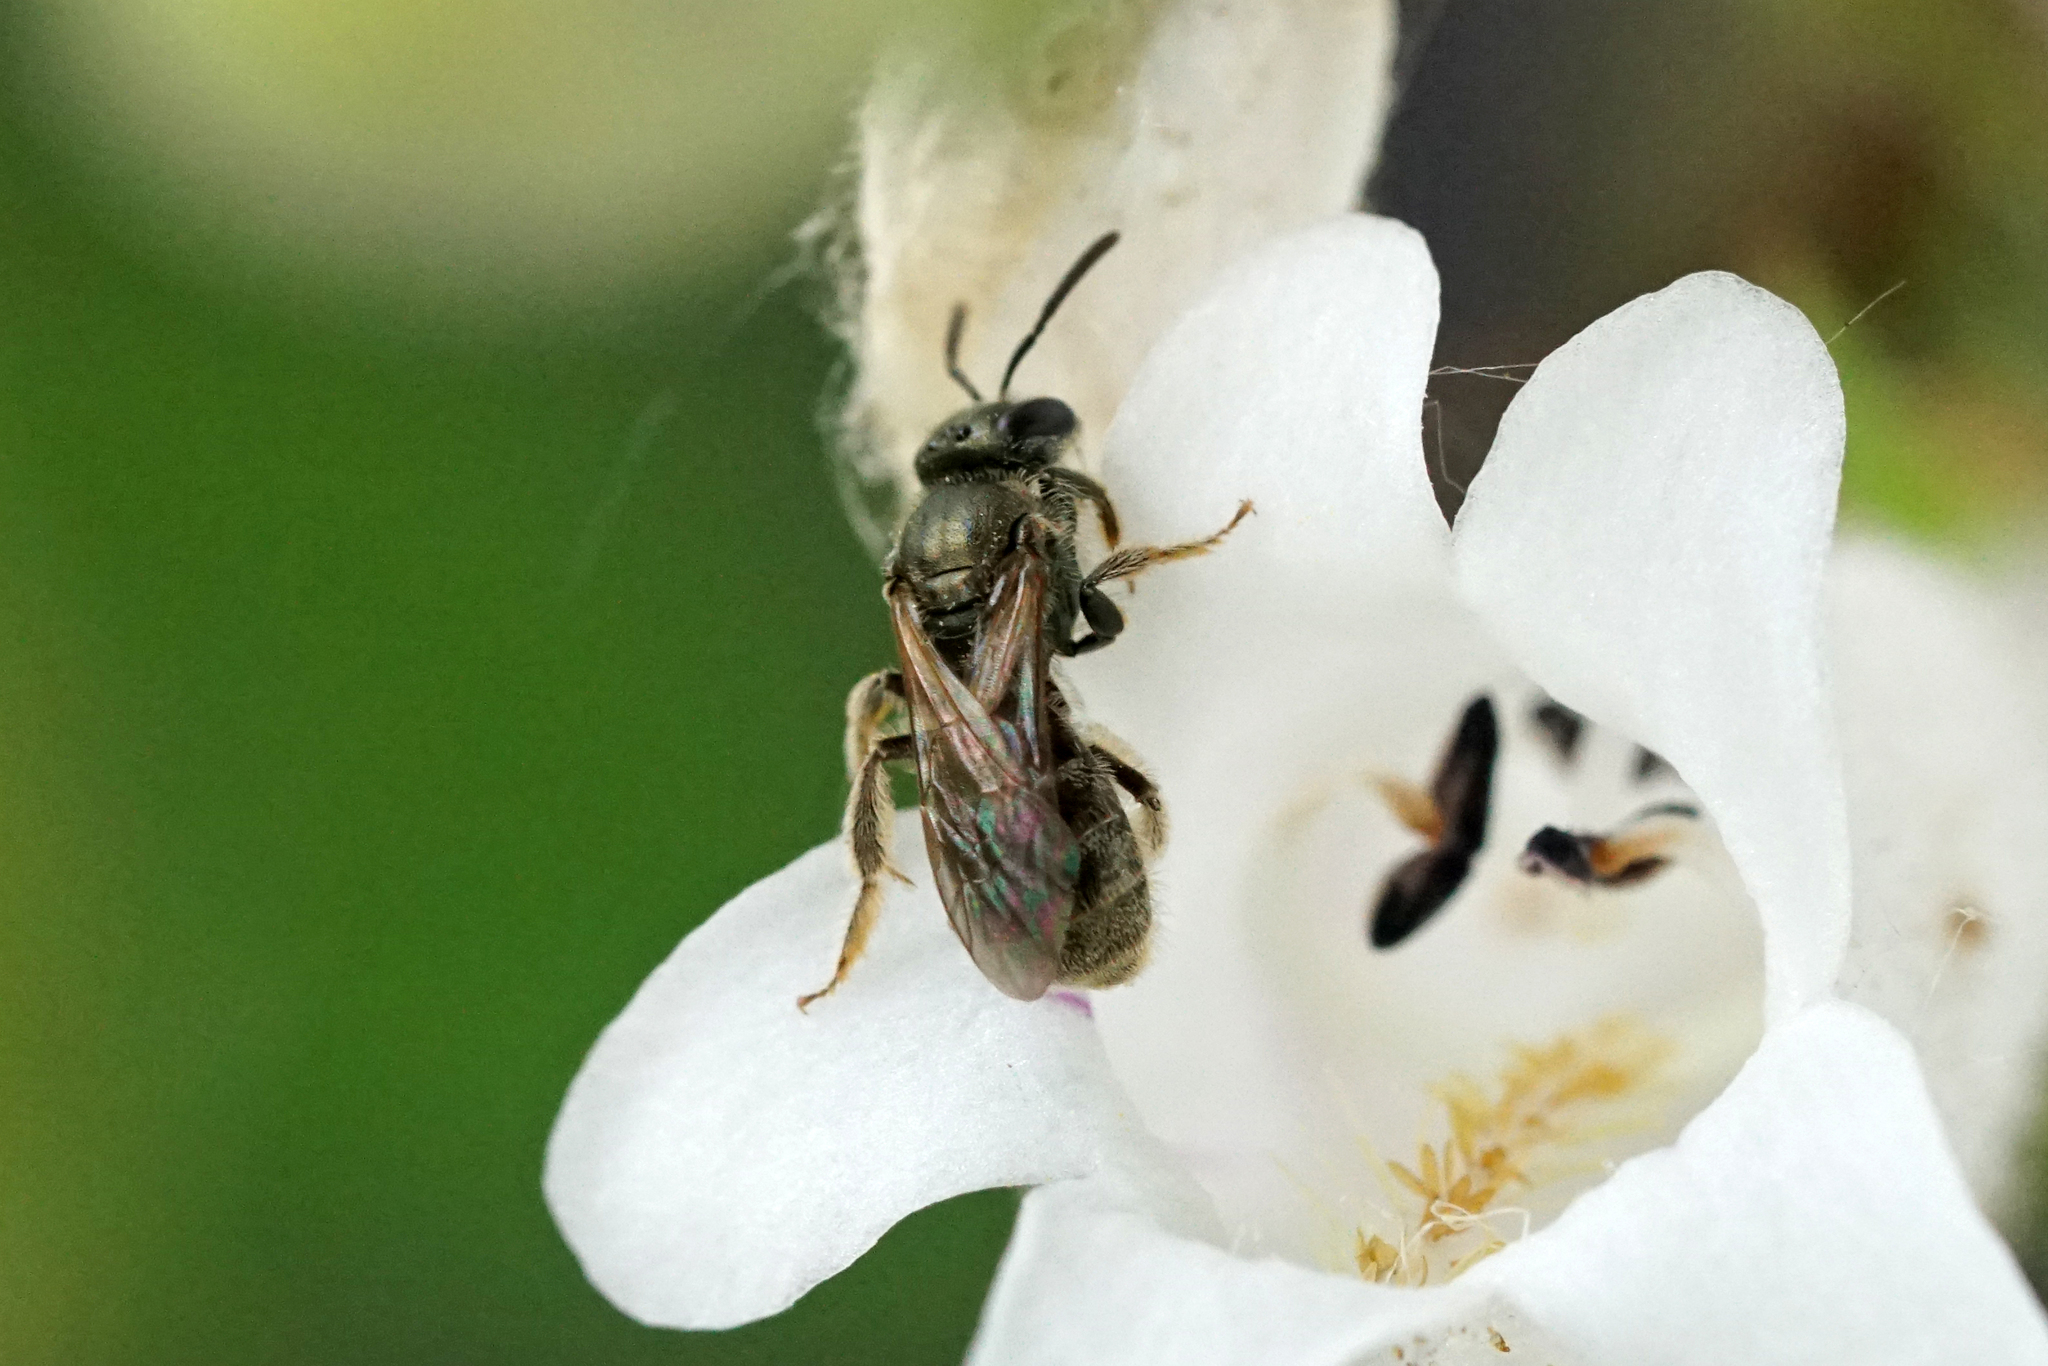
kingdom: Animalia
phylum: Arthropoda
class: Insecta
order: Hymenoptera
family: Halictidae
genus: Dialictus
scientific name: Dialictus
